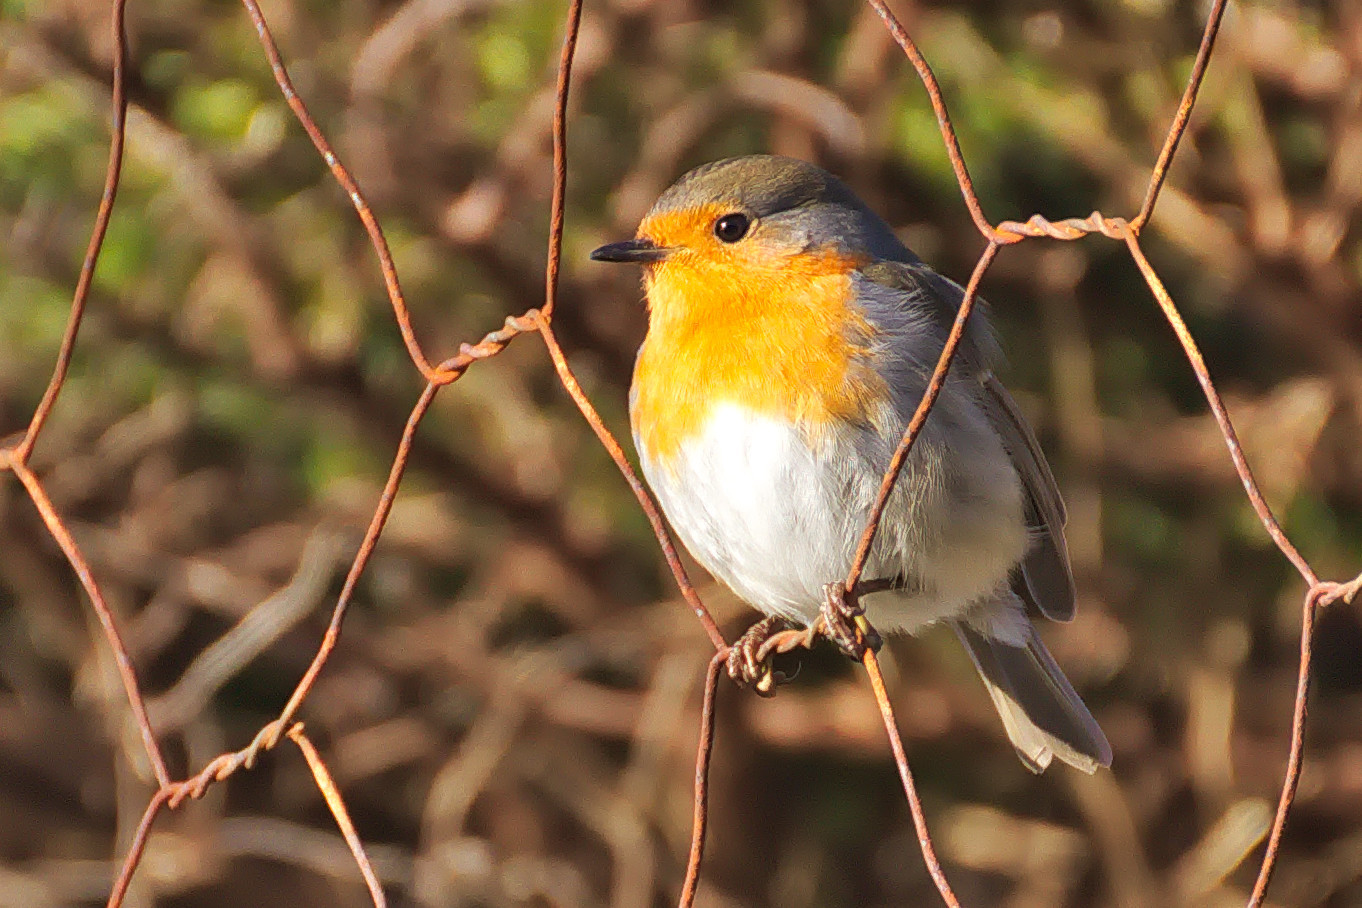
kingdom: Animalia
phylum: Chordata
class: Aves
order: Passeriformes
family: Muscicapidae
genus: Erithacus
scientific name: Erithacus rubecula
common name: European robin
